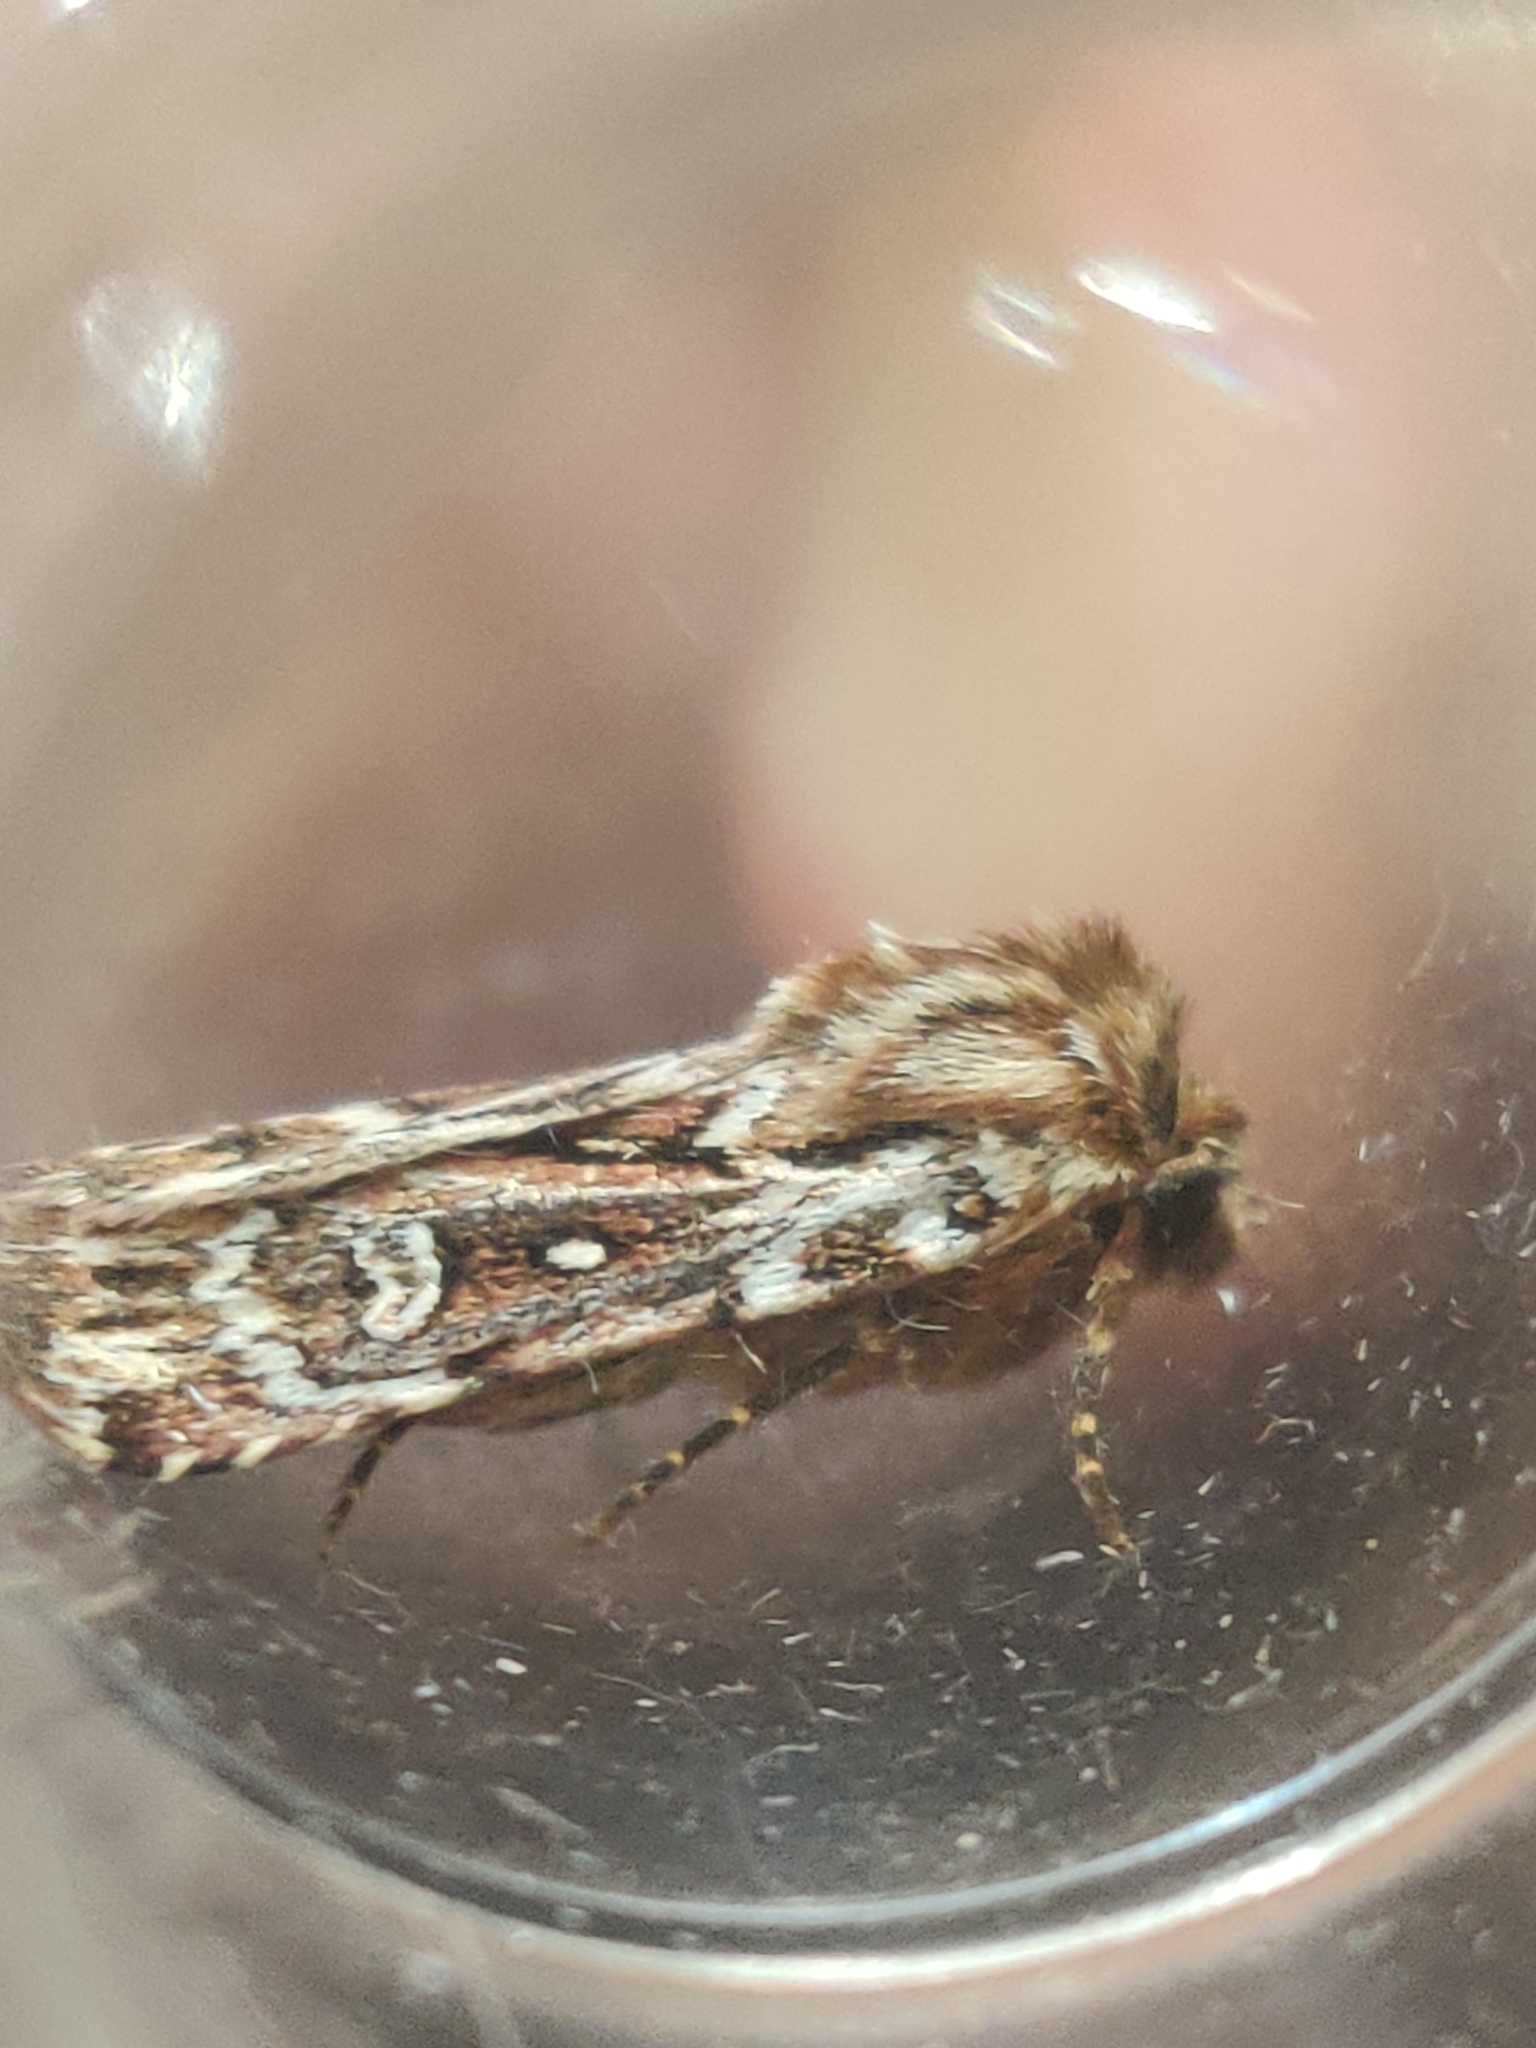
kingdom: Animalia
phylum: Arthropoda
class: Insecta
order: Lepidoptera
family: Noctuidae
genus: Lycophotia
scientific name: Lycophotia porphyrea
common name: True lover's knot
